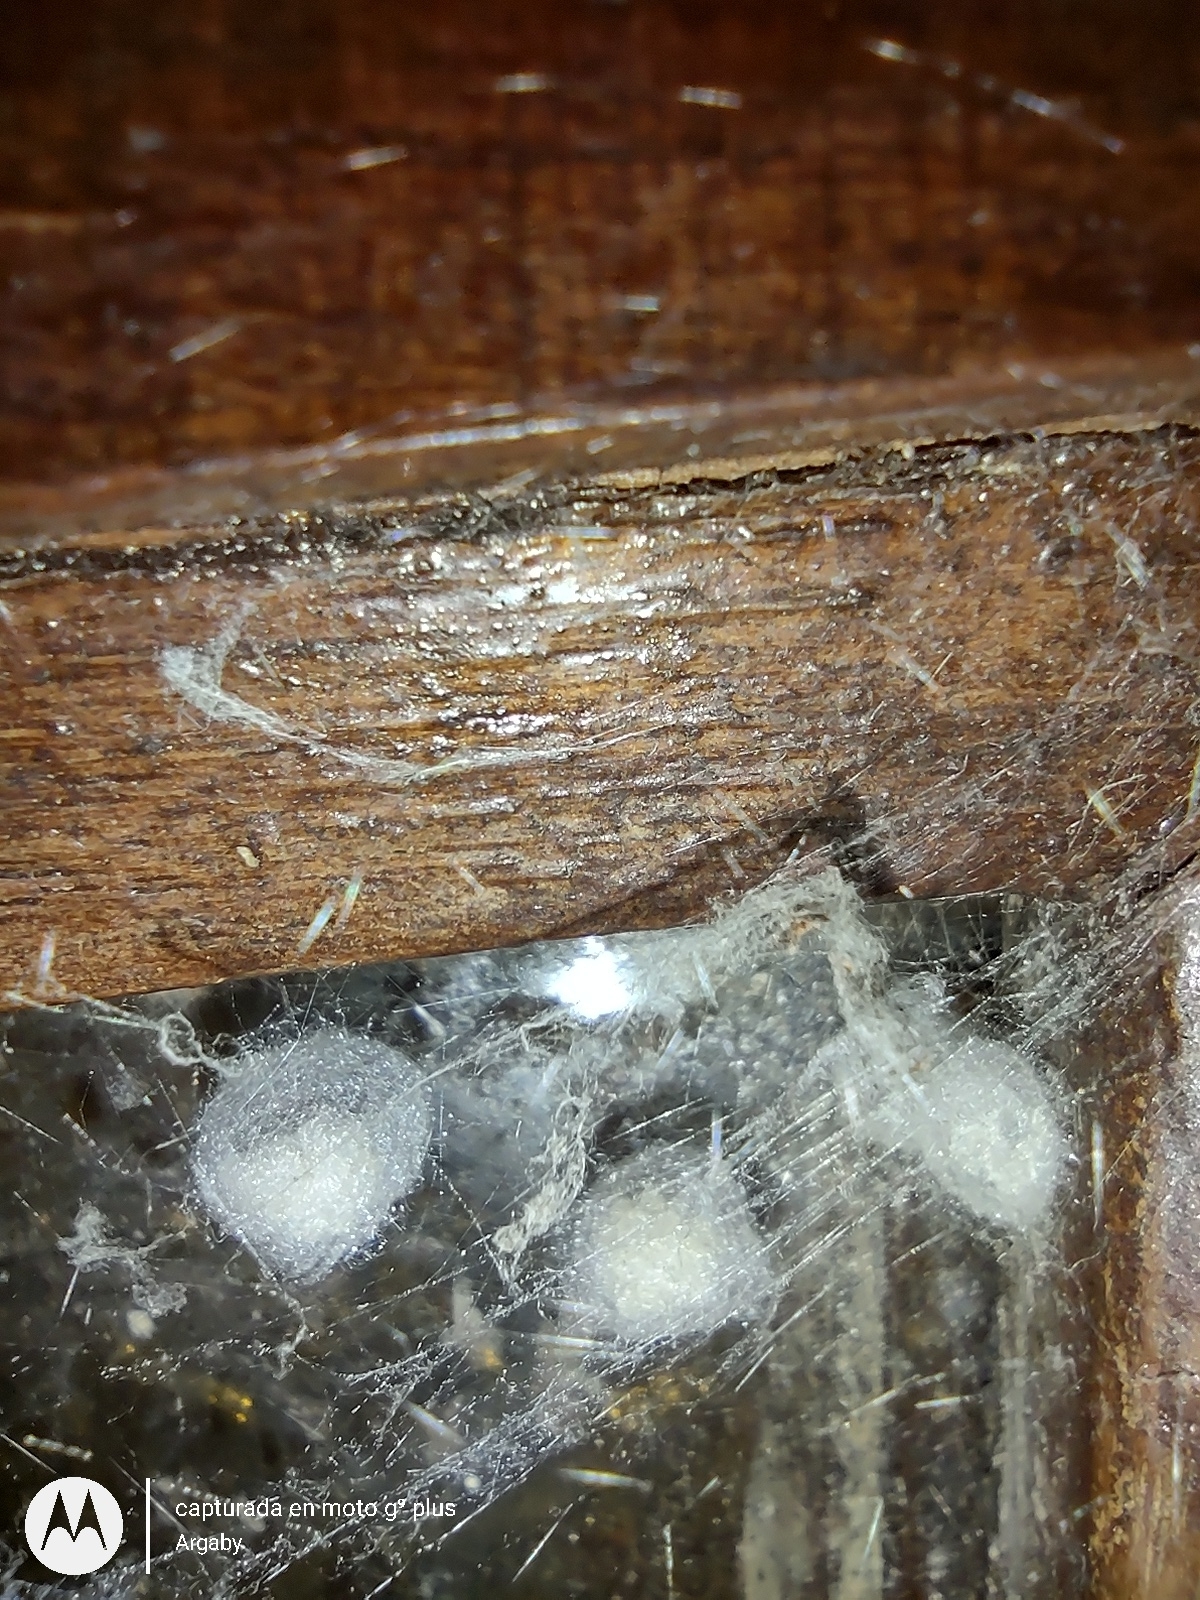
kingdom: Animalia
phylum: Arthropoda
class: Arachnida
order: Araneae
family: Theridiidae
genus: Steatoda
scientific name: Steatoda triangulosa
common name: Triangulate bud spider
